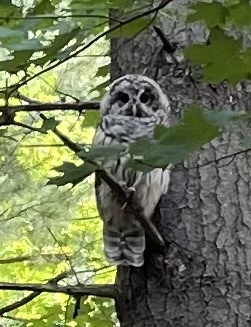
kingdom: Animalia
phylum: Chordata
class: Aves
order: Strigiformes
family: Strigidae
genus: Strix
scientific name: Strix varia
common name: Barred owl
